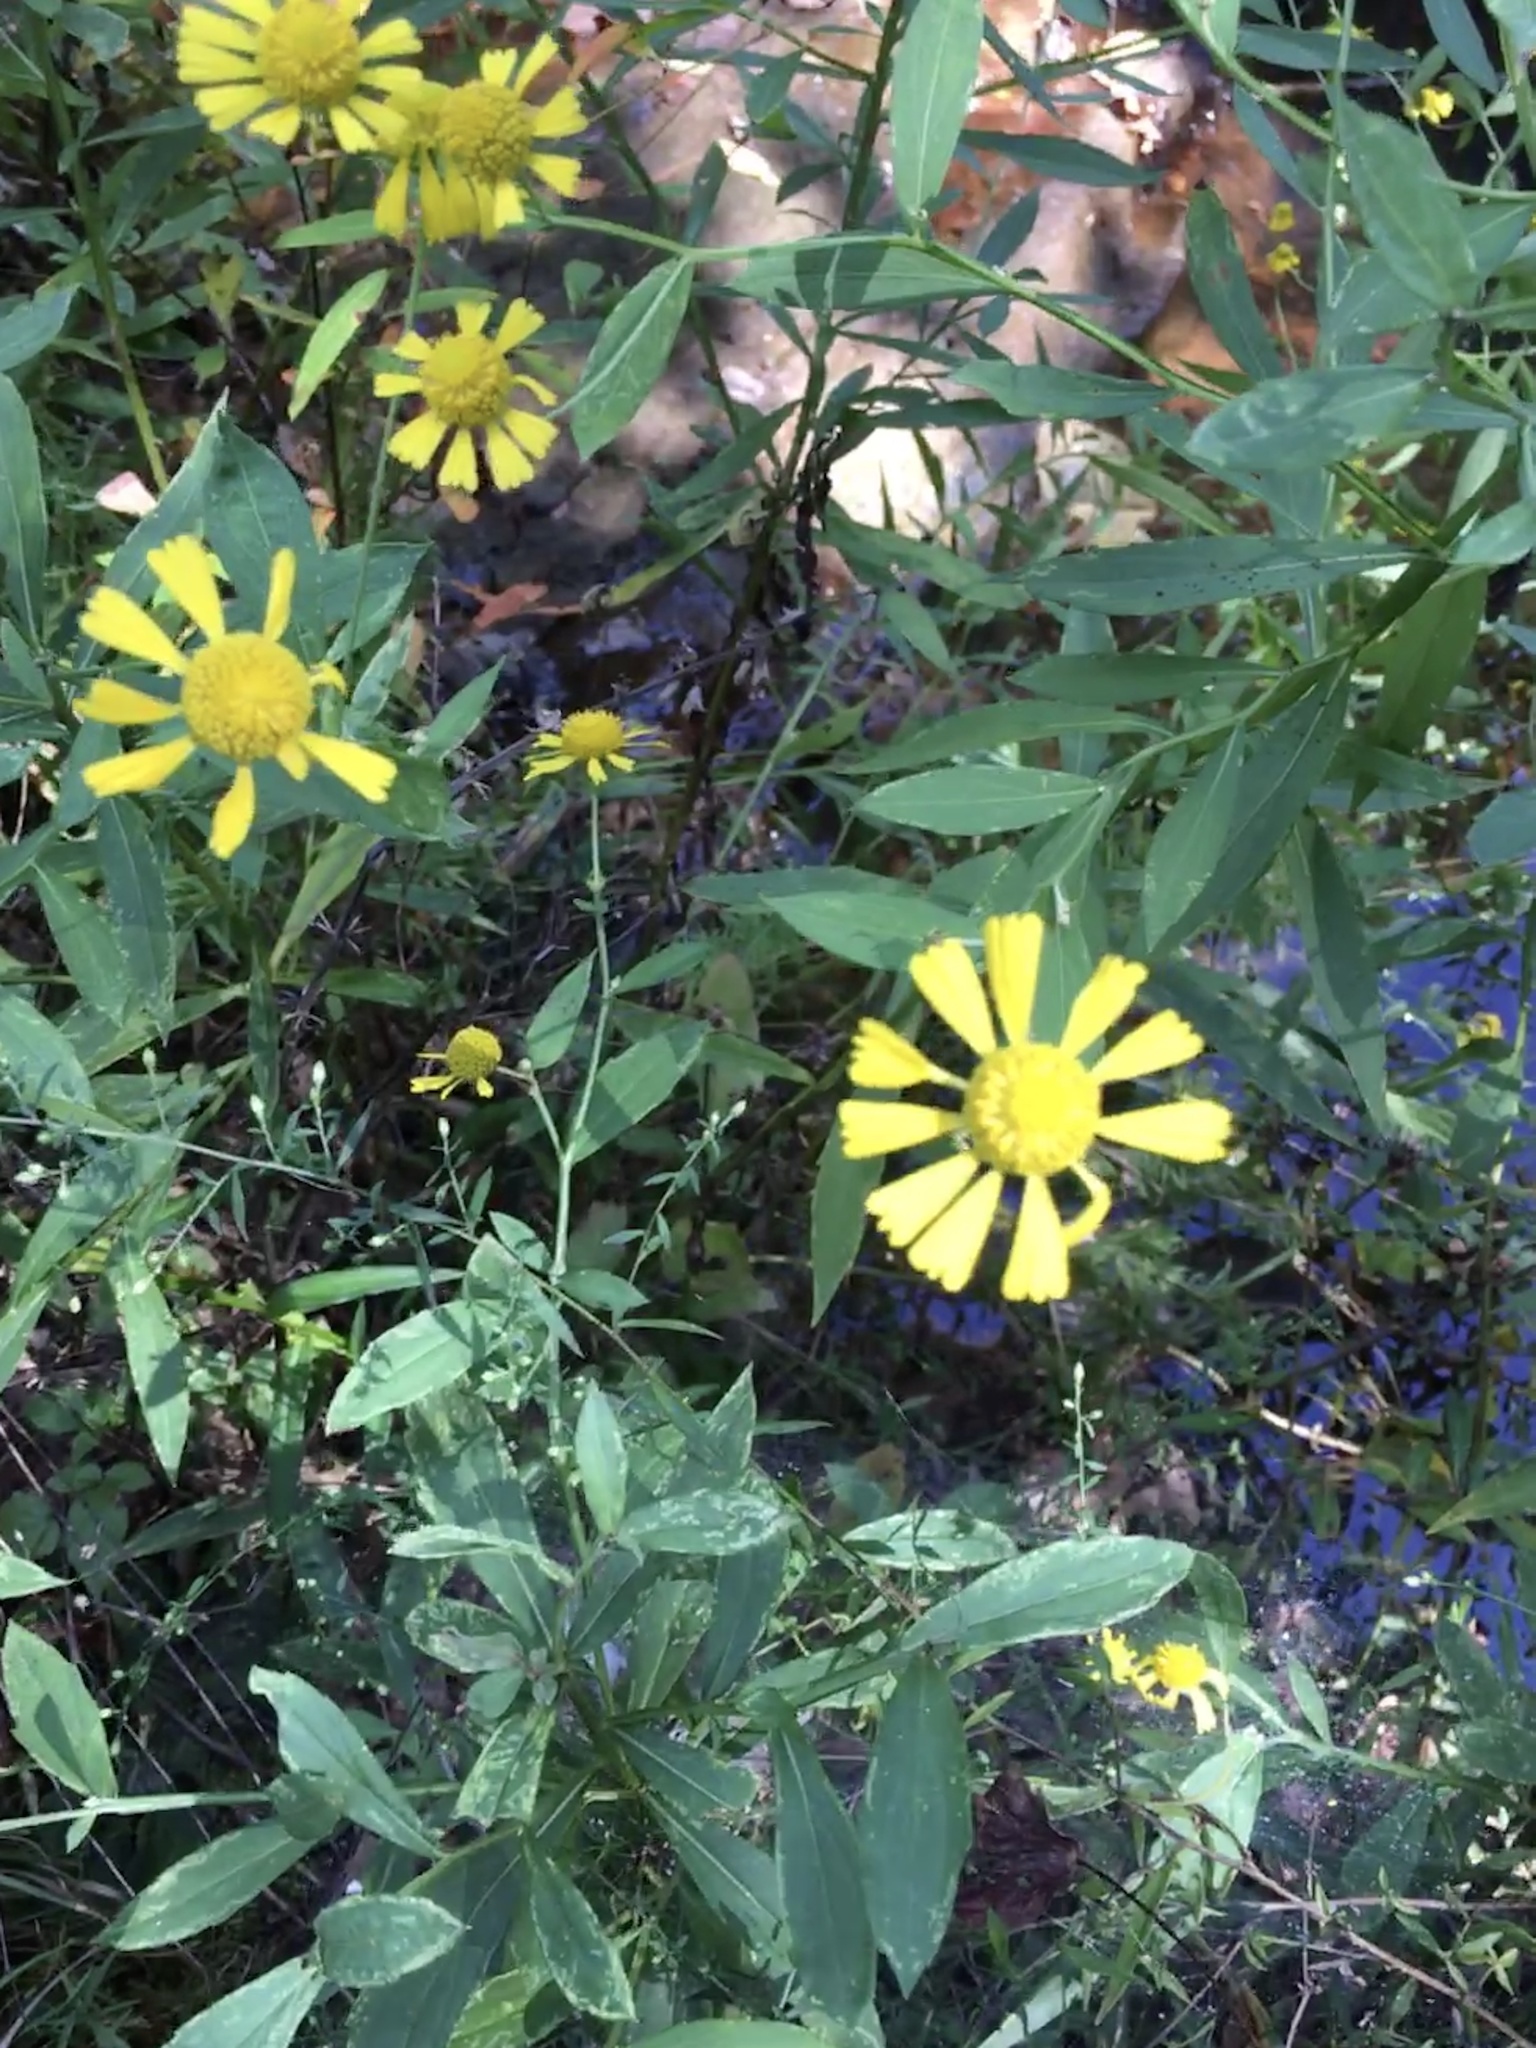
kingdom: Plantae
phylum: Tracheophyta
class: Magnoliopsida
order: Asterales
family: Asteraceae
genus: Helenium
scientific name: Helenium autumnale
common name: Sneezeweed
